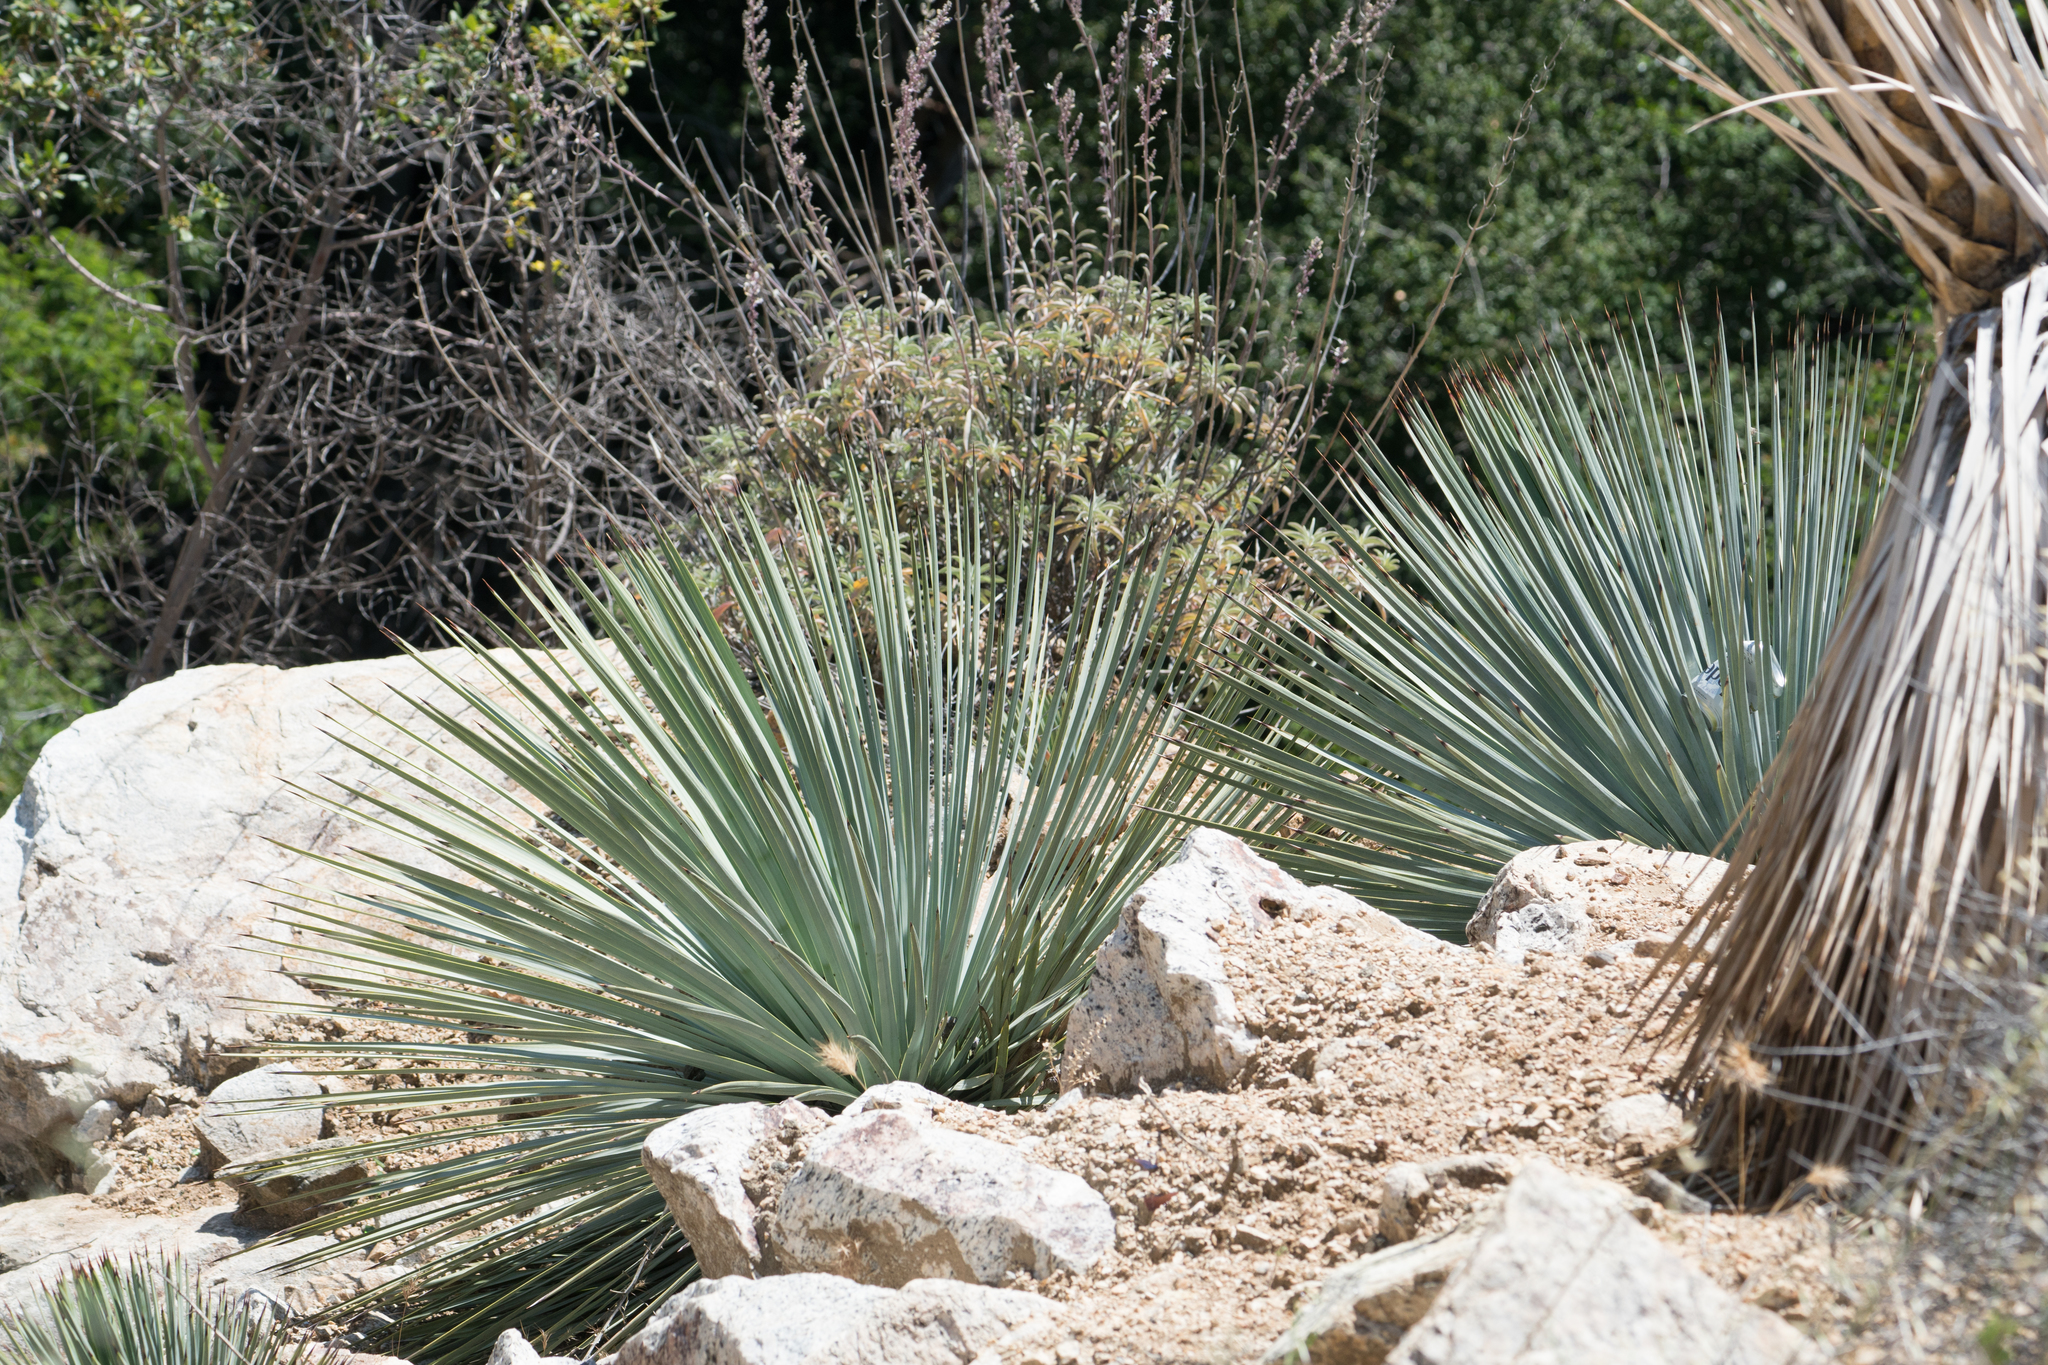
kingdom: Plantae
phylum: Tracheophyta
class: Liliopsida
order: Asparagales
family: Asparagaceae
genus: Hesperoyucca
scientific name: Hesperoyucca whipplei
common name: Our lord's-candle
